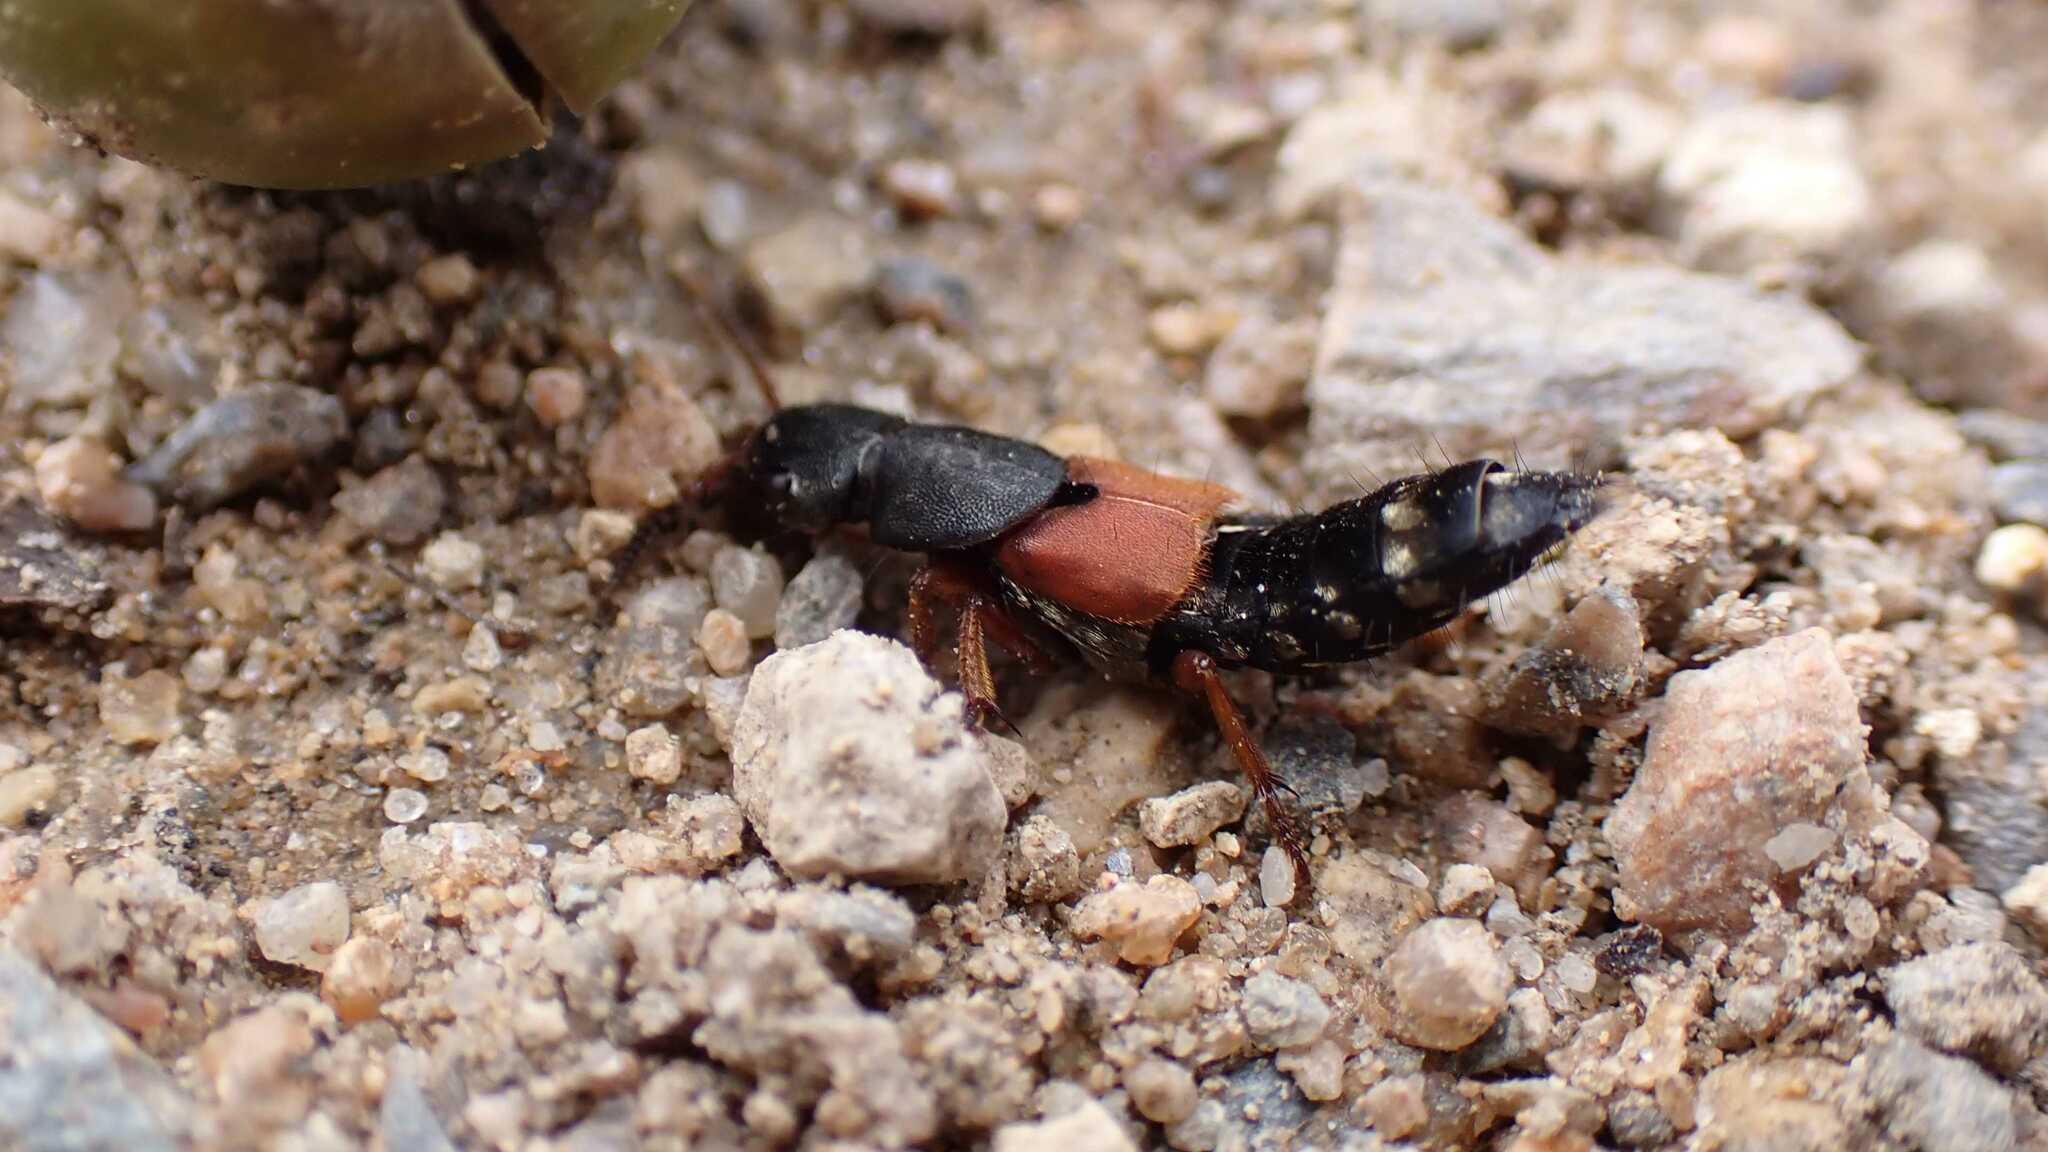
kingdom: Animalia
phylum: Arthropoda
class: Insecta
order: Coleoptera
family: Staphylinidae
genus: Platydracus
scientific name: Platydracus stercorarius
